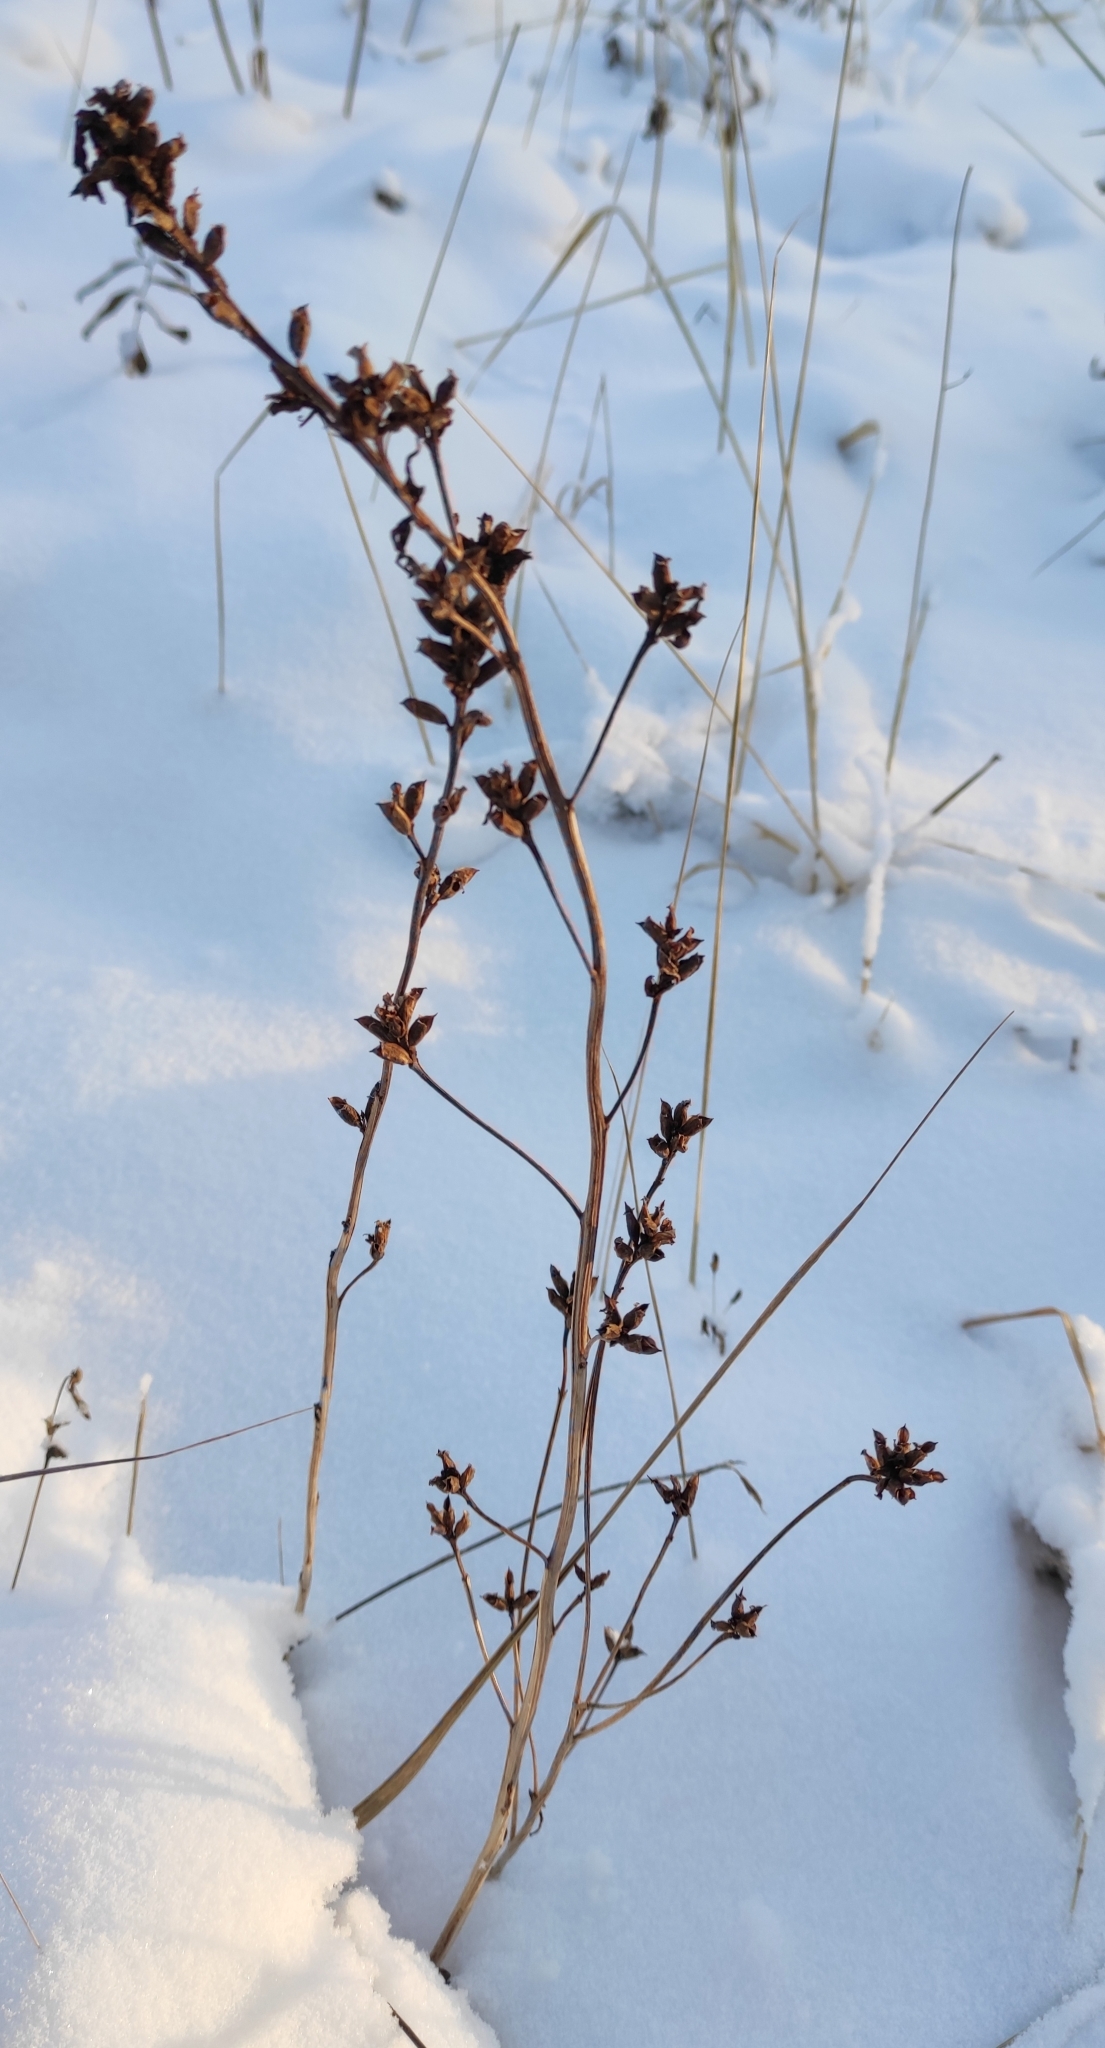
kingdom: Plantae
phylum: Tracheophyta
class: Magnoliopsida
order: Lamiales
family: Orobanchaceae
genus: Pedicularis
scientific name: Pedicularis labradorica
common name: Labrador lousewort
